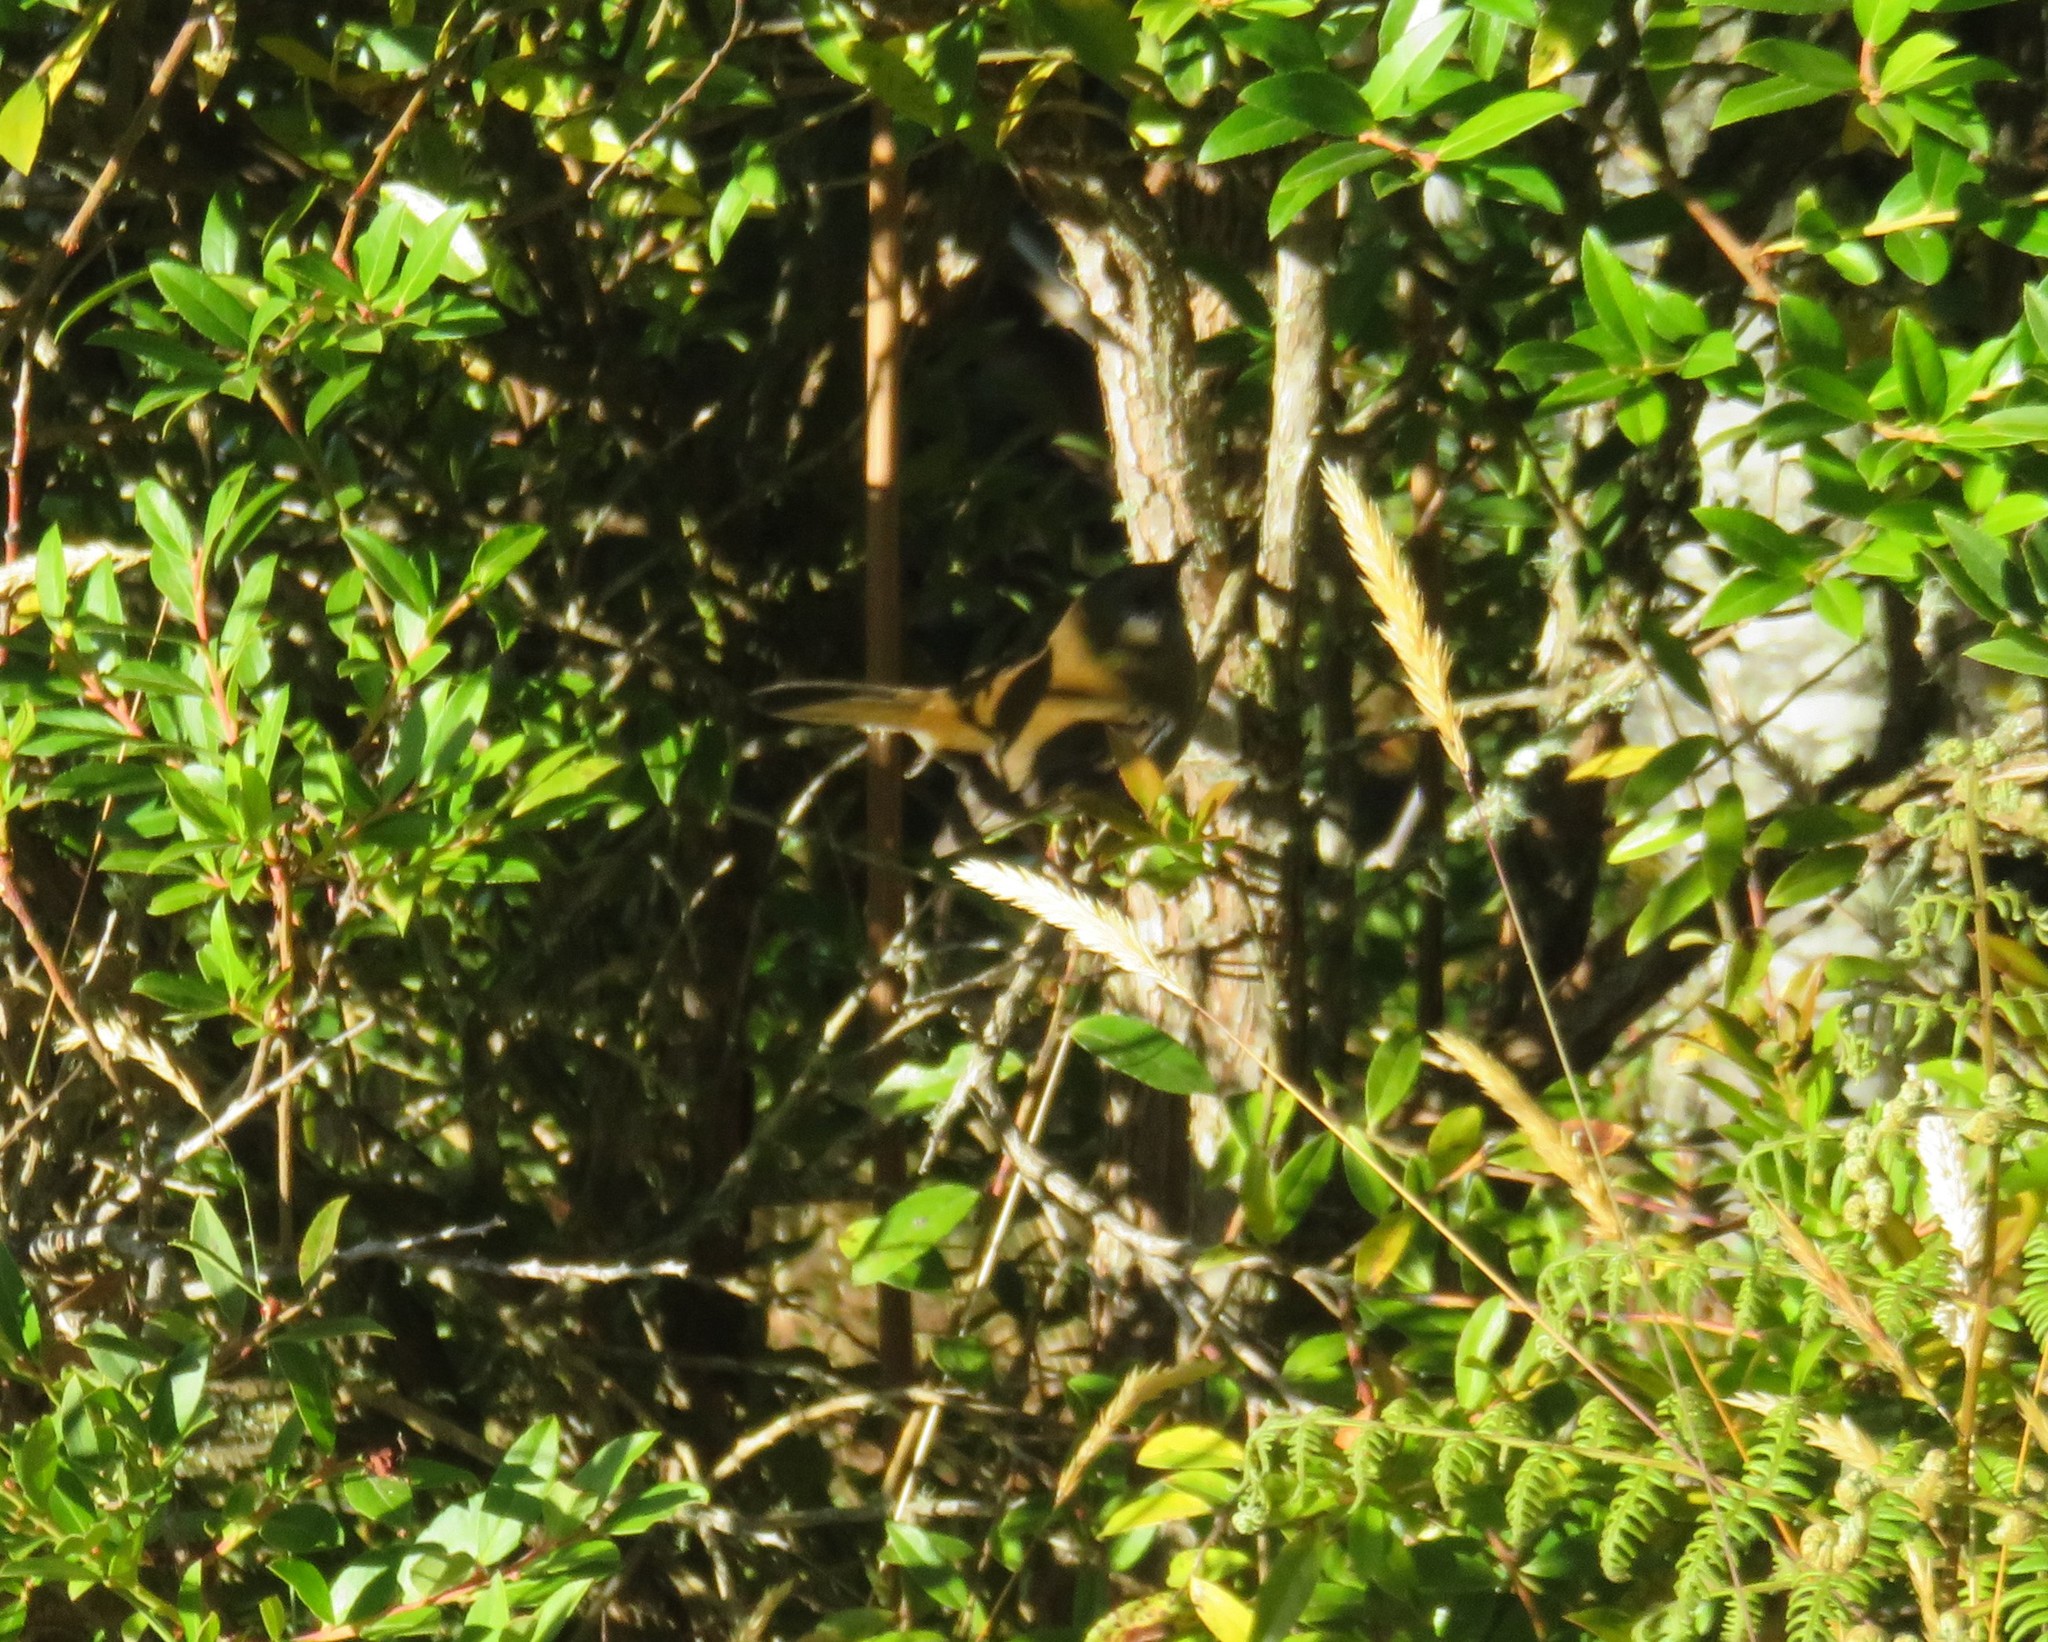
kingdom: Animalia
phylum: Chordata
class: Aves
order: Passeriformes
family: Turdidae
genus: Catharus
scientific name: Catharus gracilirostris
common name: Black-billed nightingale-thrush
